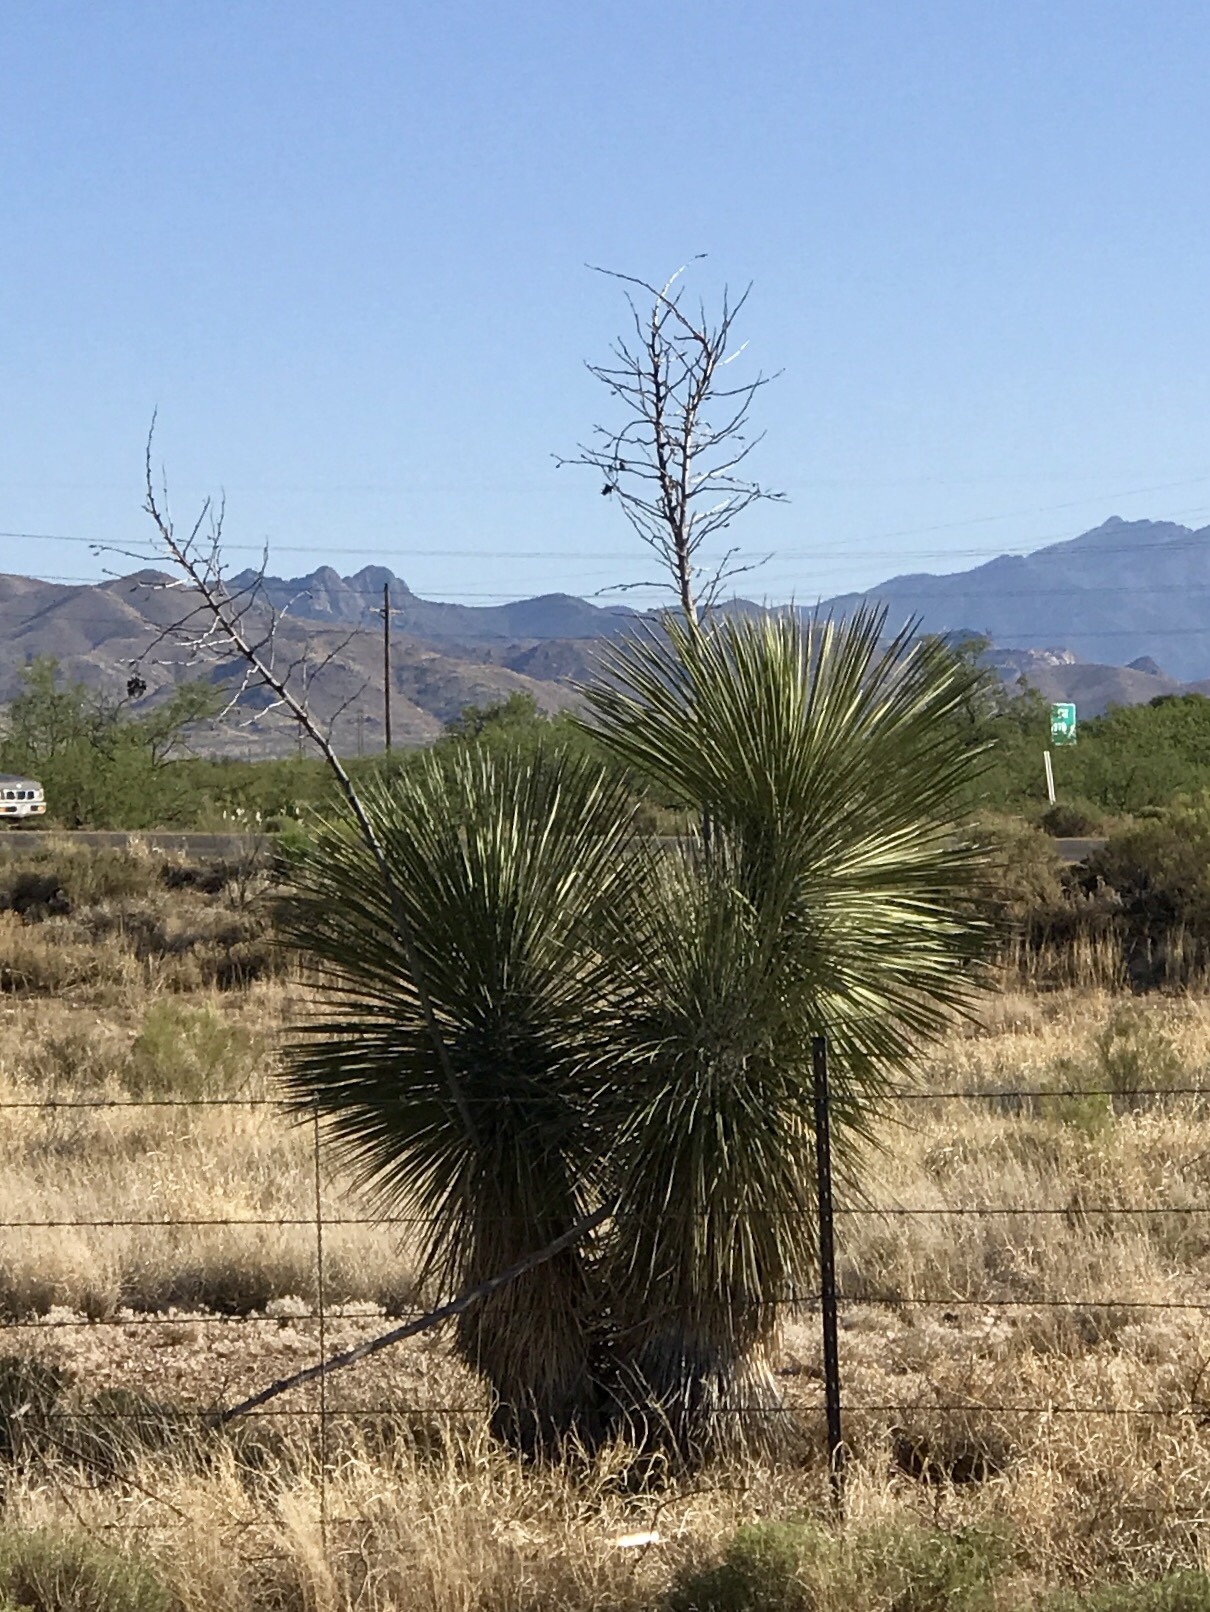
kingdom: Plantae
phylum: Tracheophyta
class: Liliopsida
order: Asparagales
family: Asparagaceae
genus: Yucca
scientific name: Yucca elata
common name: Palmella
